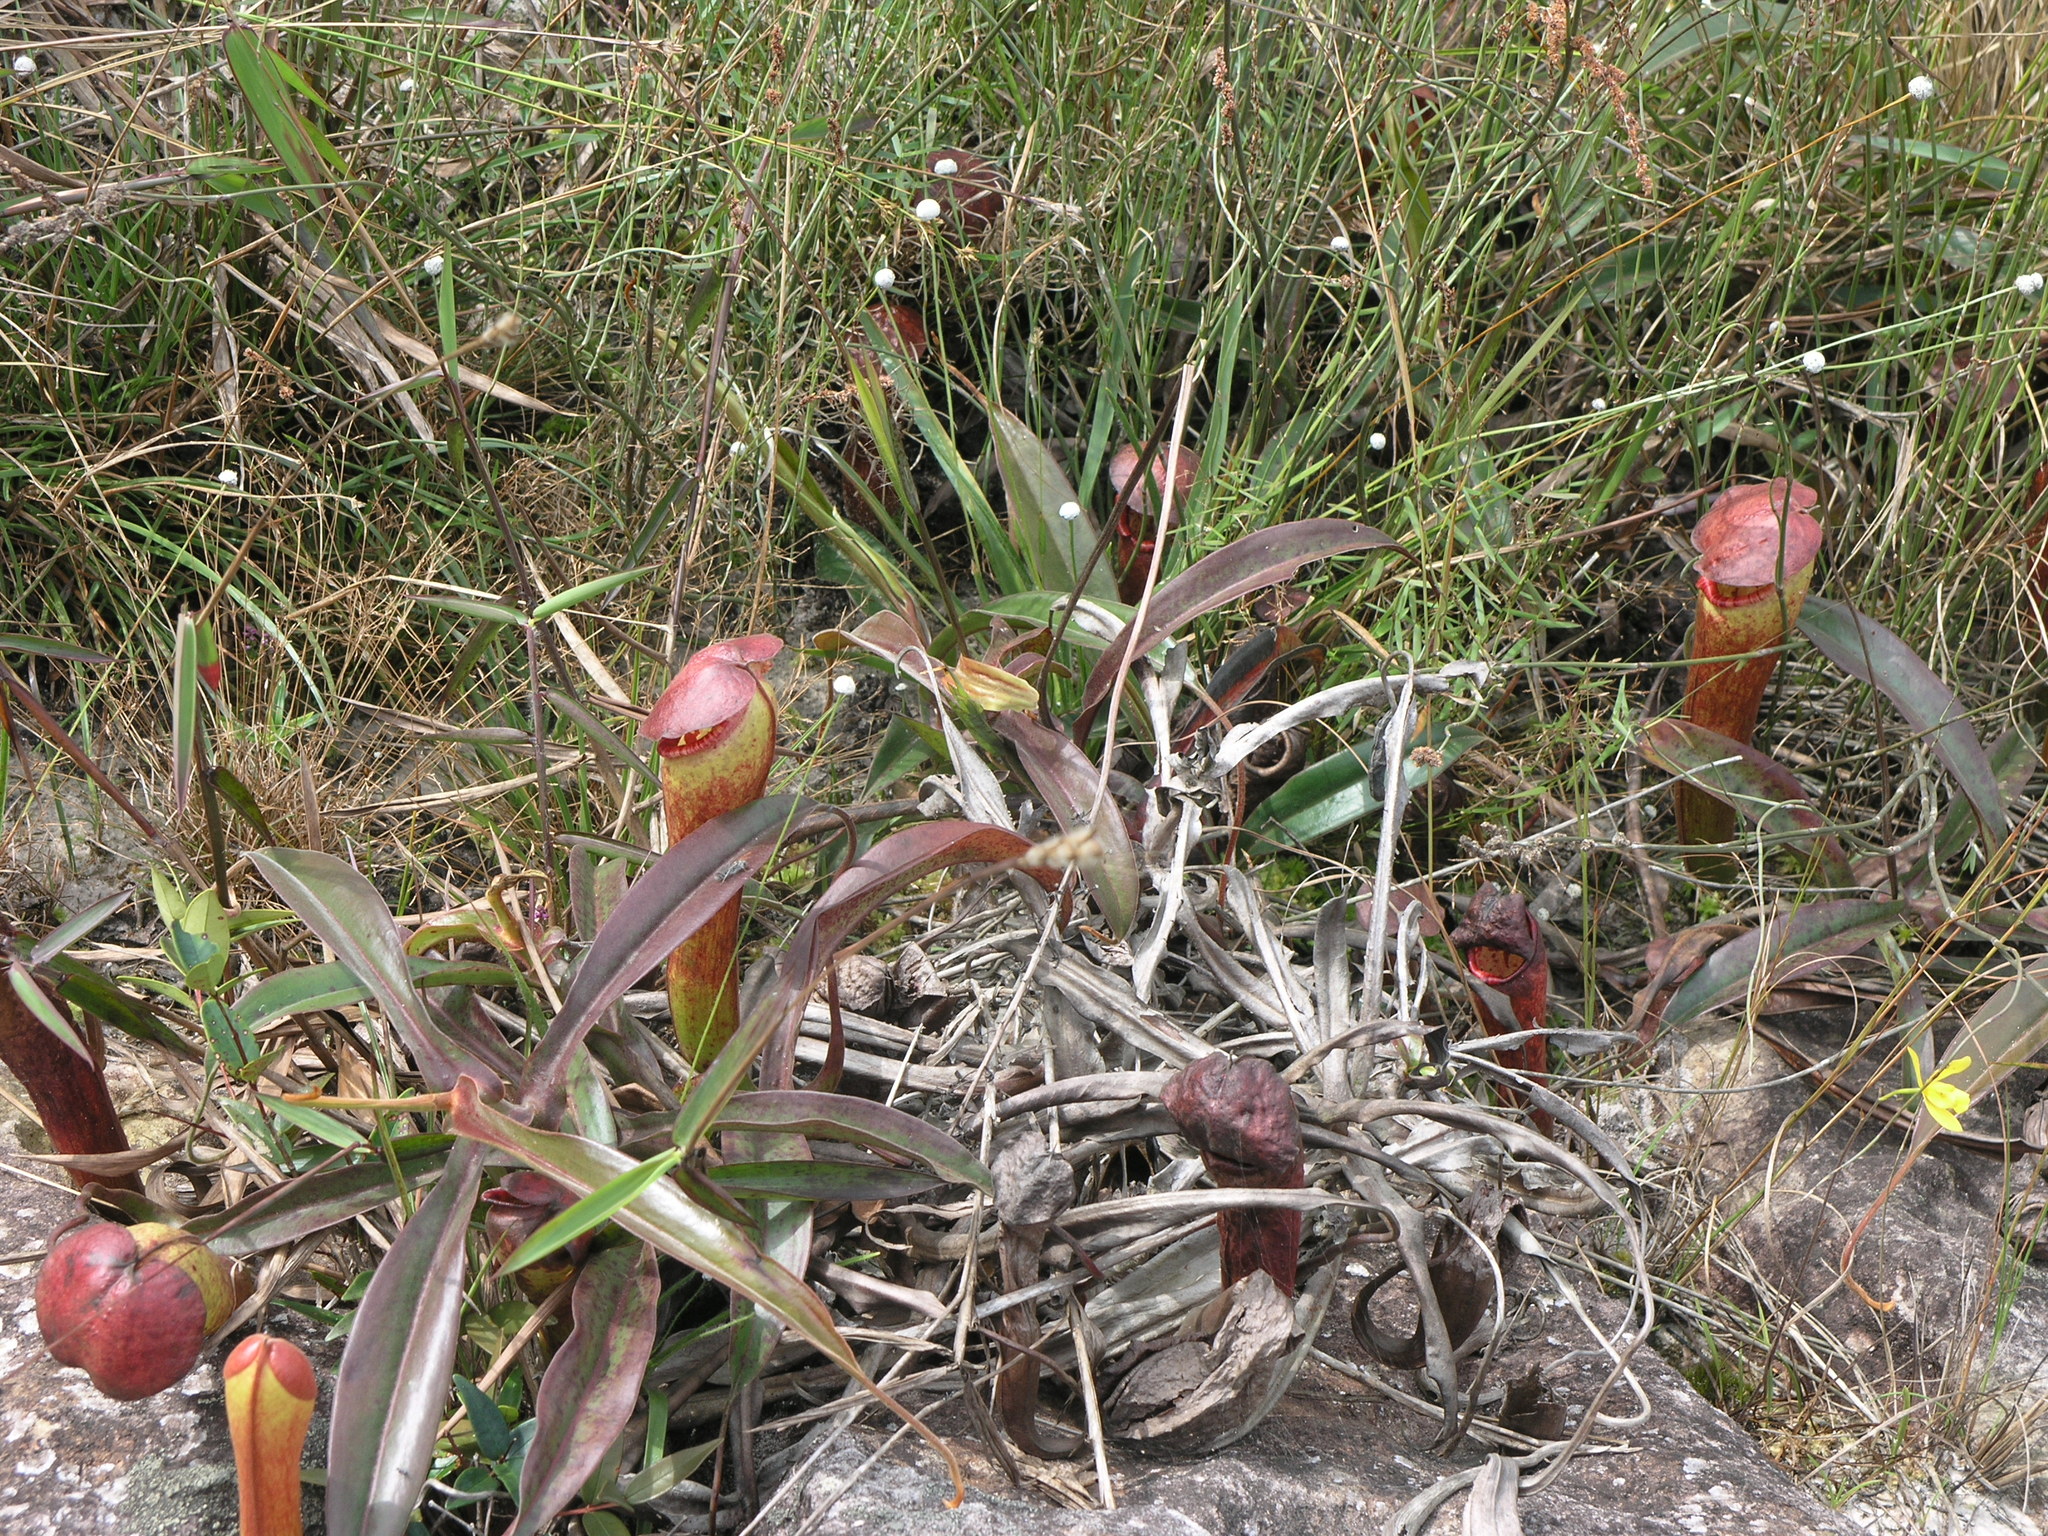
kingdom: Plantae
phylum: Tracheophyta
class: Magnoliopsida
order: Caryophyllales
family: Nepenthaceae
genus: Nepenthes
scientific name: Nepenthes bokorensis
